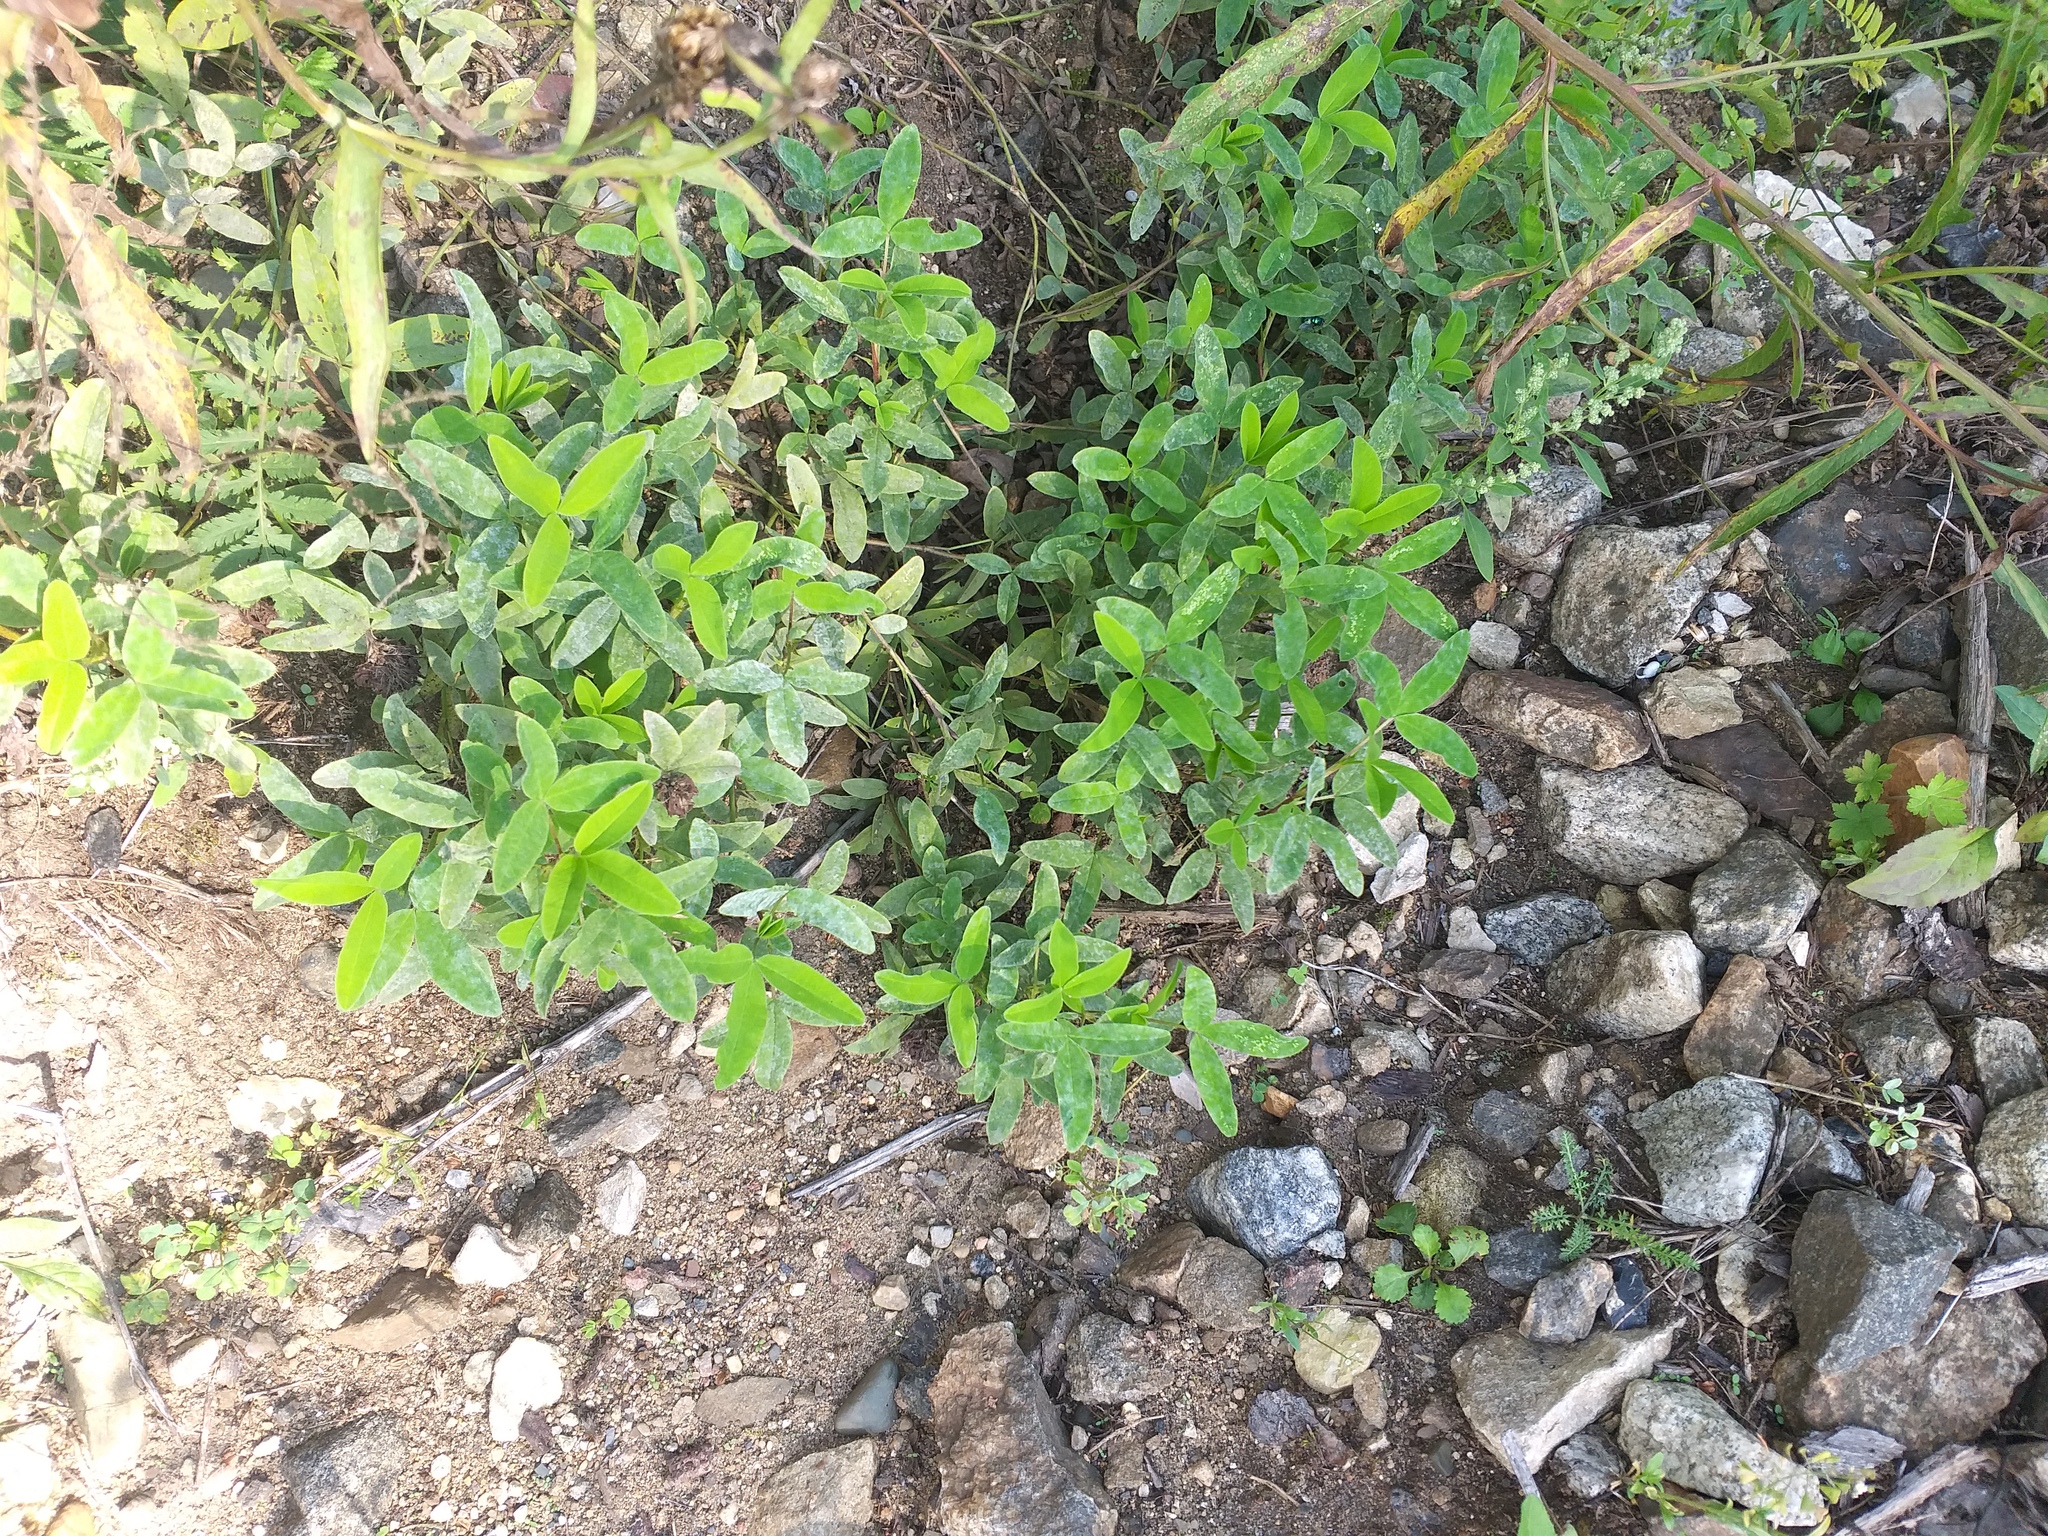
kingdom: Plantae
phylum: Tracheophyta
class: Magnoliopsida
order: Fabales
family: Fabaceae
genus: Trifolium
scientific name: Trifolium medium
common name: Zigzag clover
